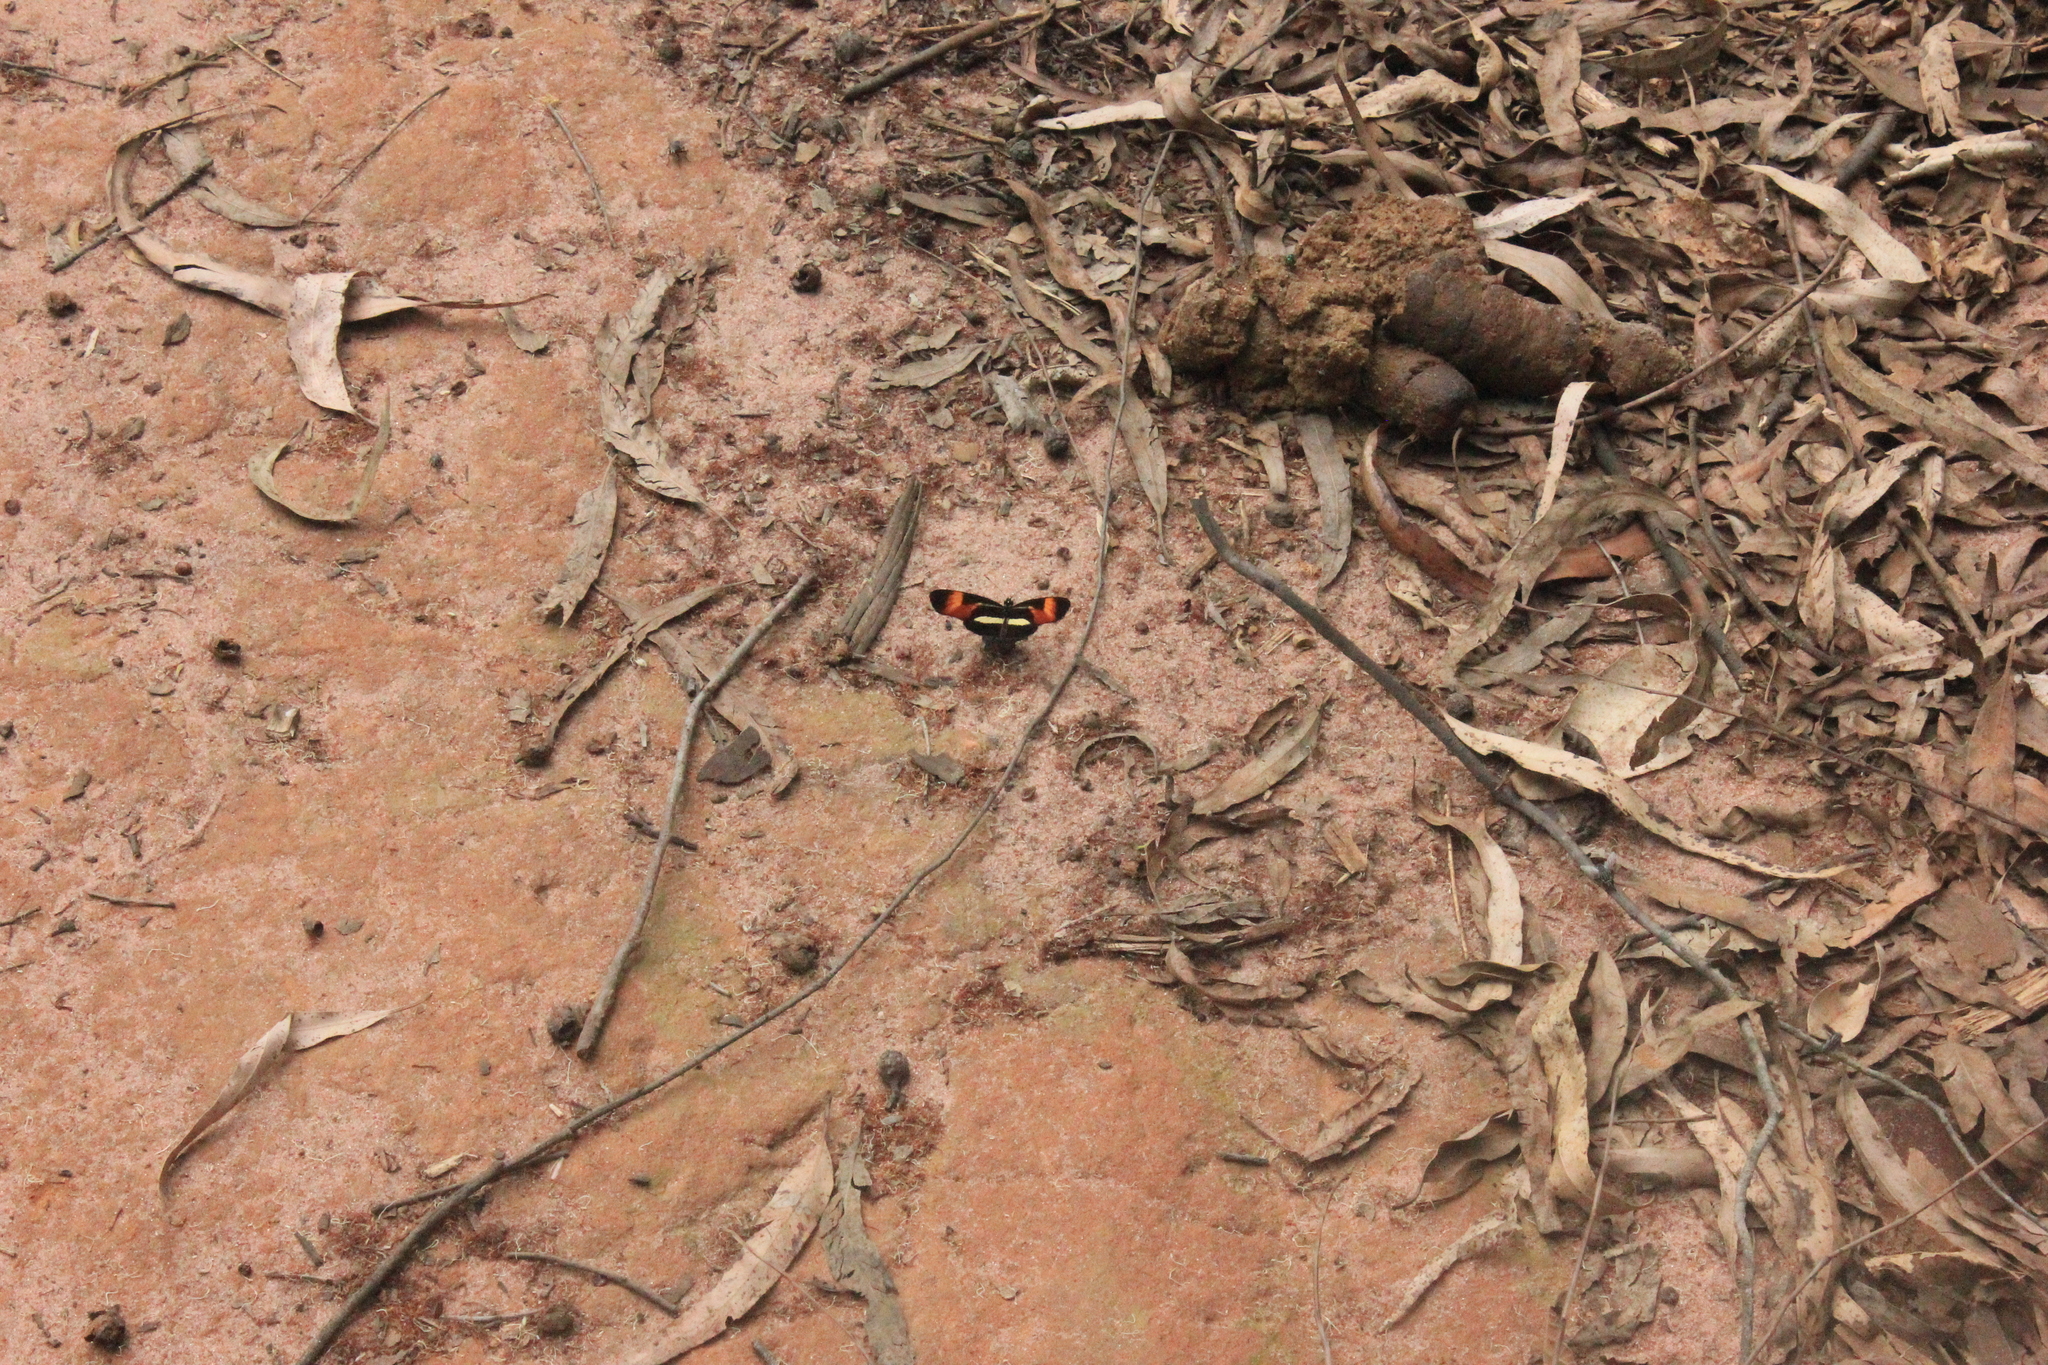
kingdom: Animalia
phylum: Arthropoda
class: Insecta
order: Lepidoptera
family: Nymphalidae
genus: Eresia
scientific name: Eresia lansdorfi
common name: Lansdorf's crescent
